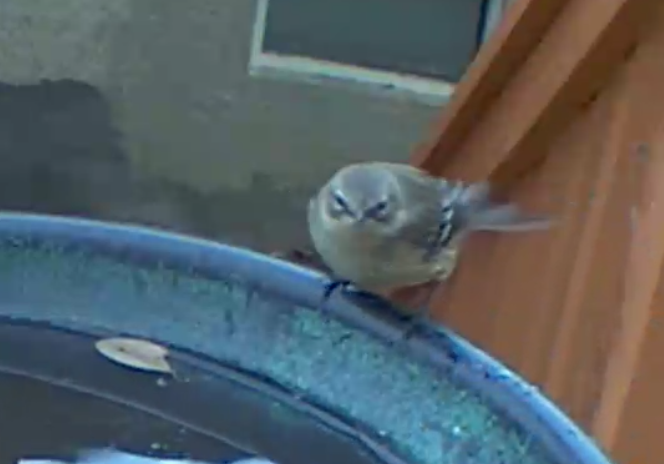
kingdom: Animalia
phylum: Chordata
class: Aves
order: Passeriformes
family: Parulidae
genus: Setophaga
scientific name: Setophaga coronata
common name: Myrtle warbler
